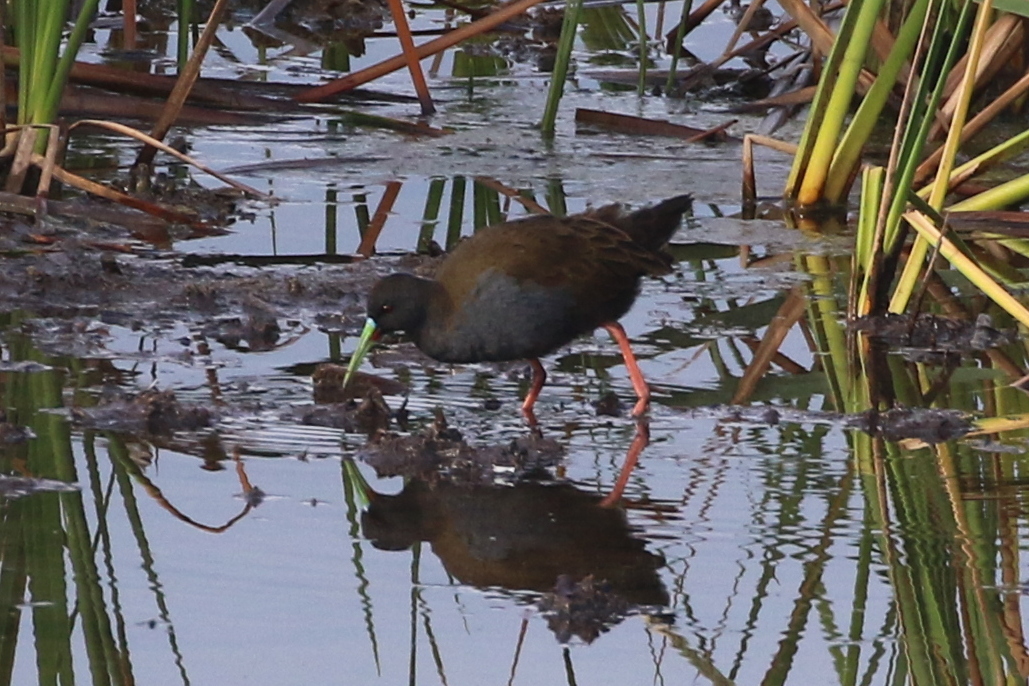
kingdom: Animalia
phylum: Chordata
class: Aves
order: Gruiformes
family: Rallidae
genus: Pardirallus
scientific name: Pardirallus sanguinolentus
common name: Plumbeous rail
